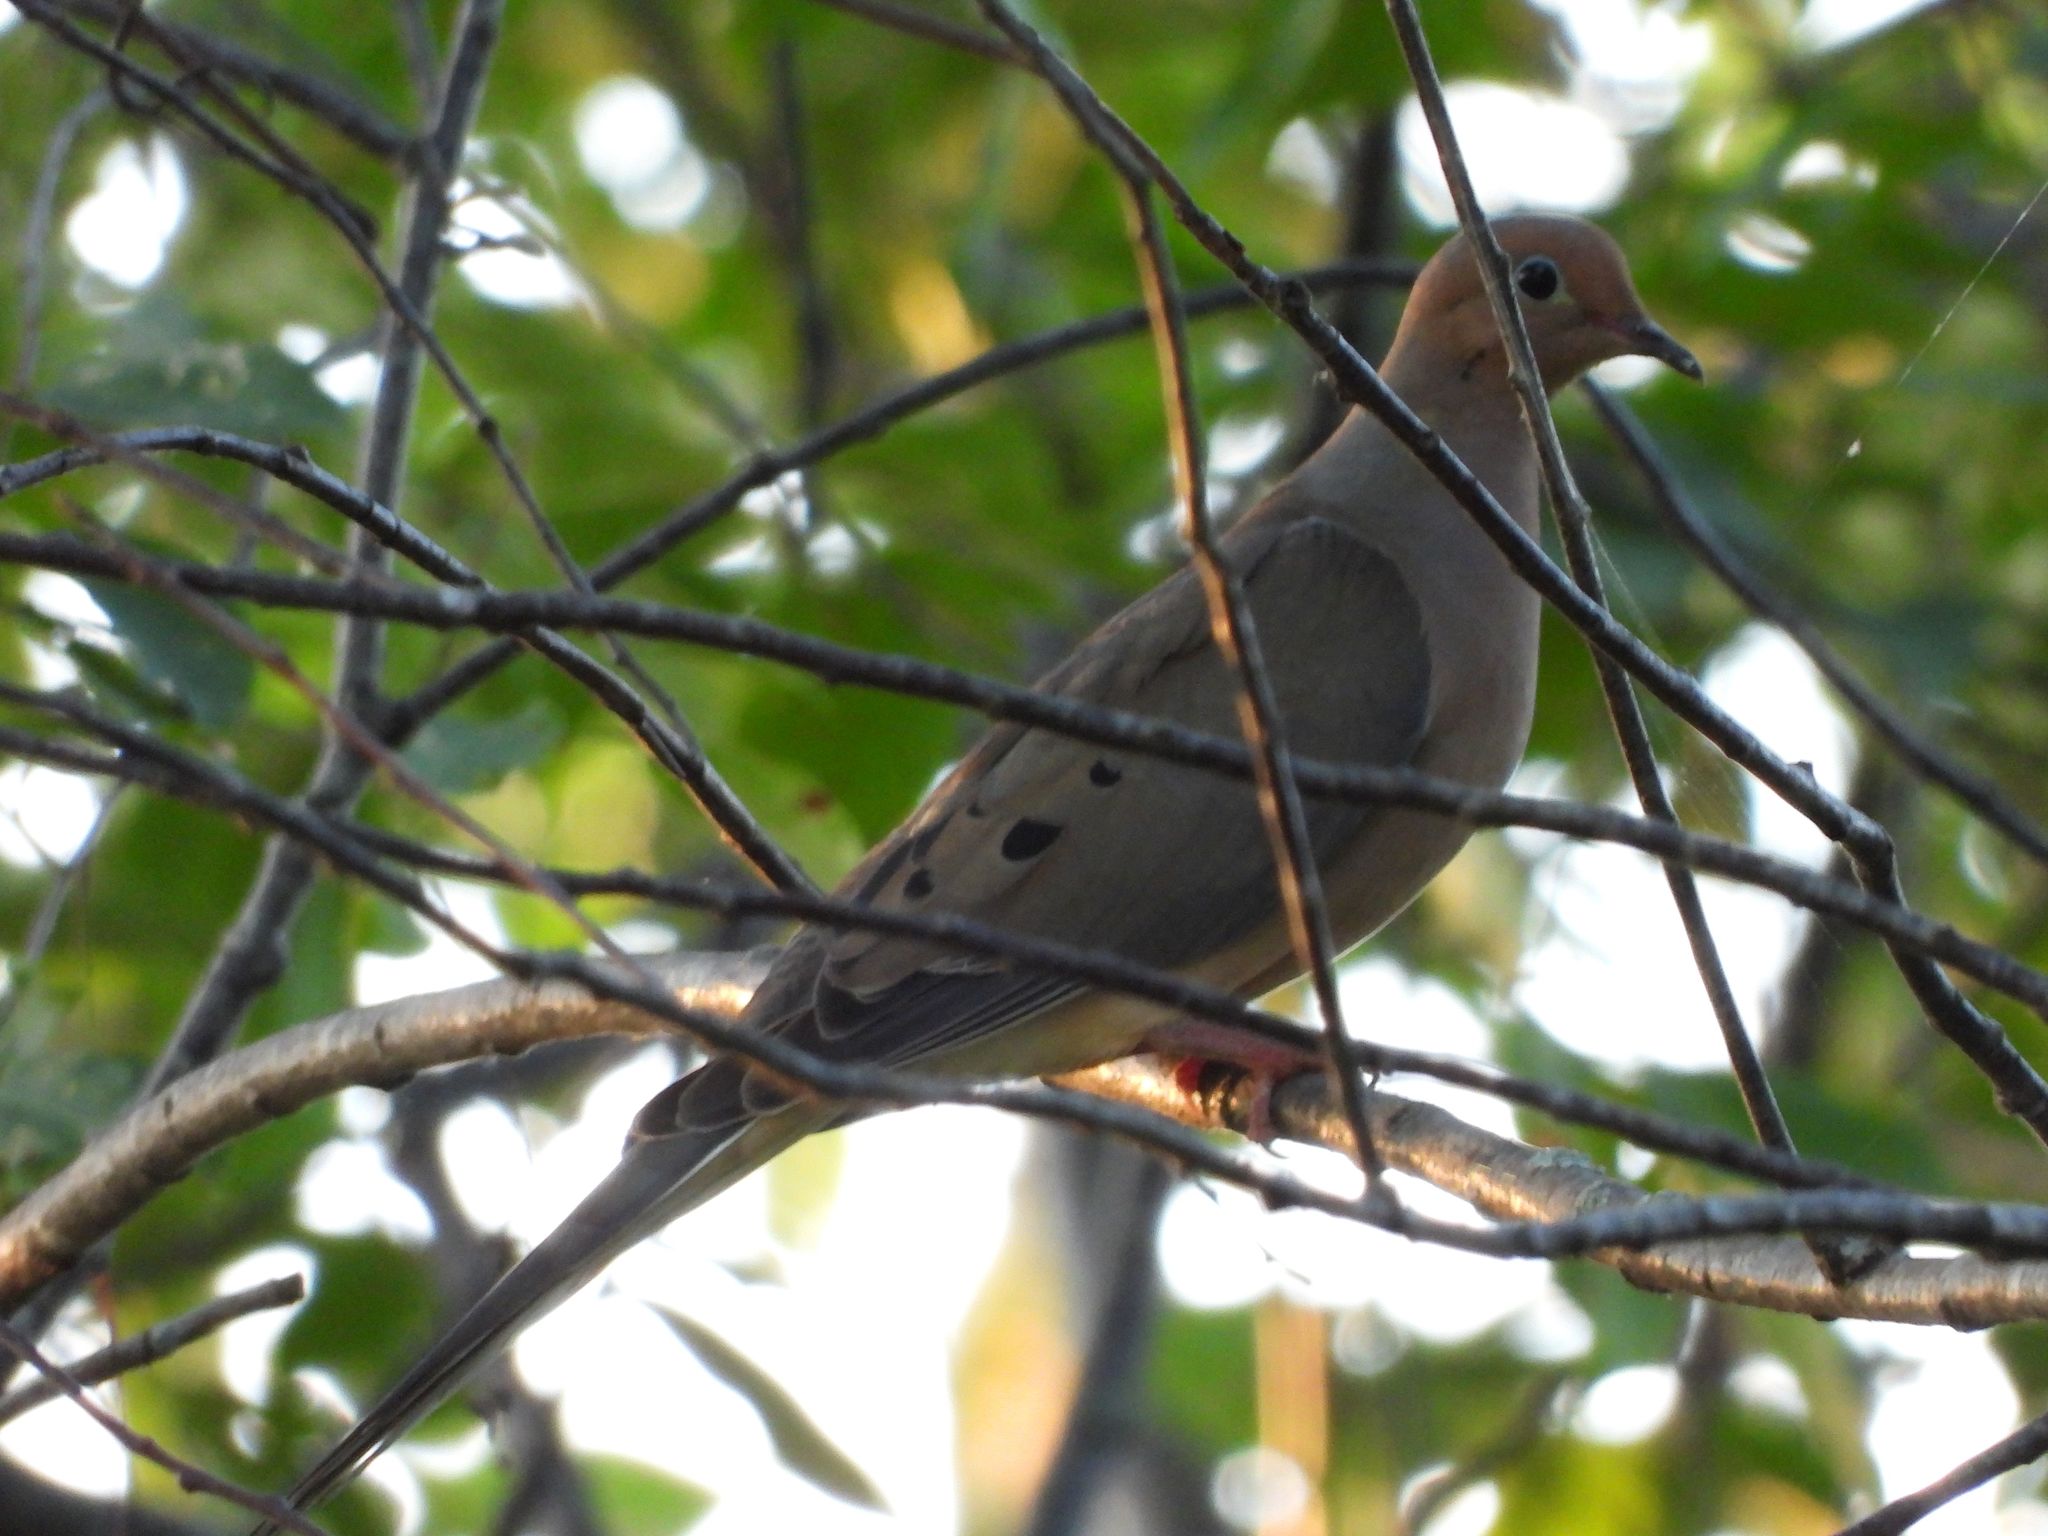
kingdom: Animalia
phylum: Chordata
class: Aves
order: Columbiformes
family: Columbidae
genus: Zenaida
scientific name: Zenaida macroura
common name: Mourning dove
